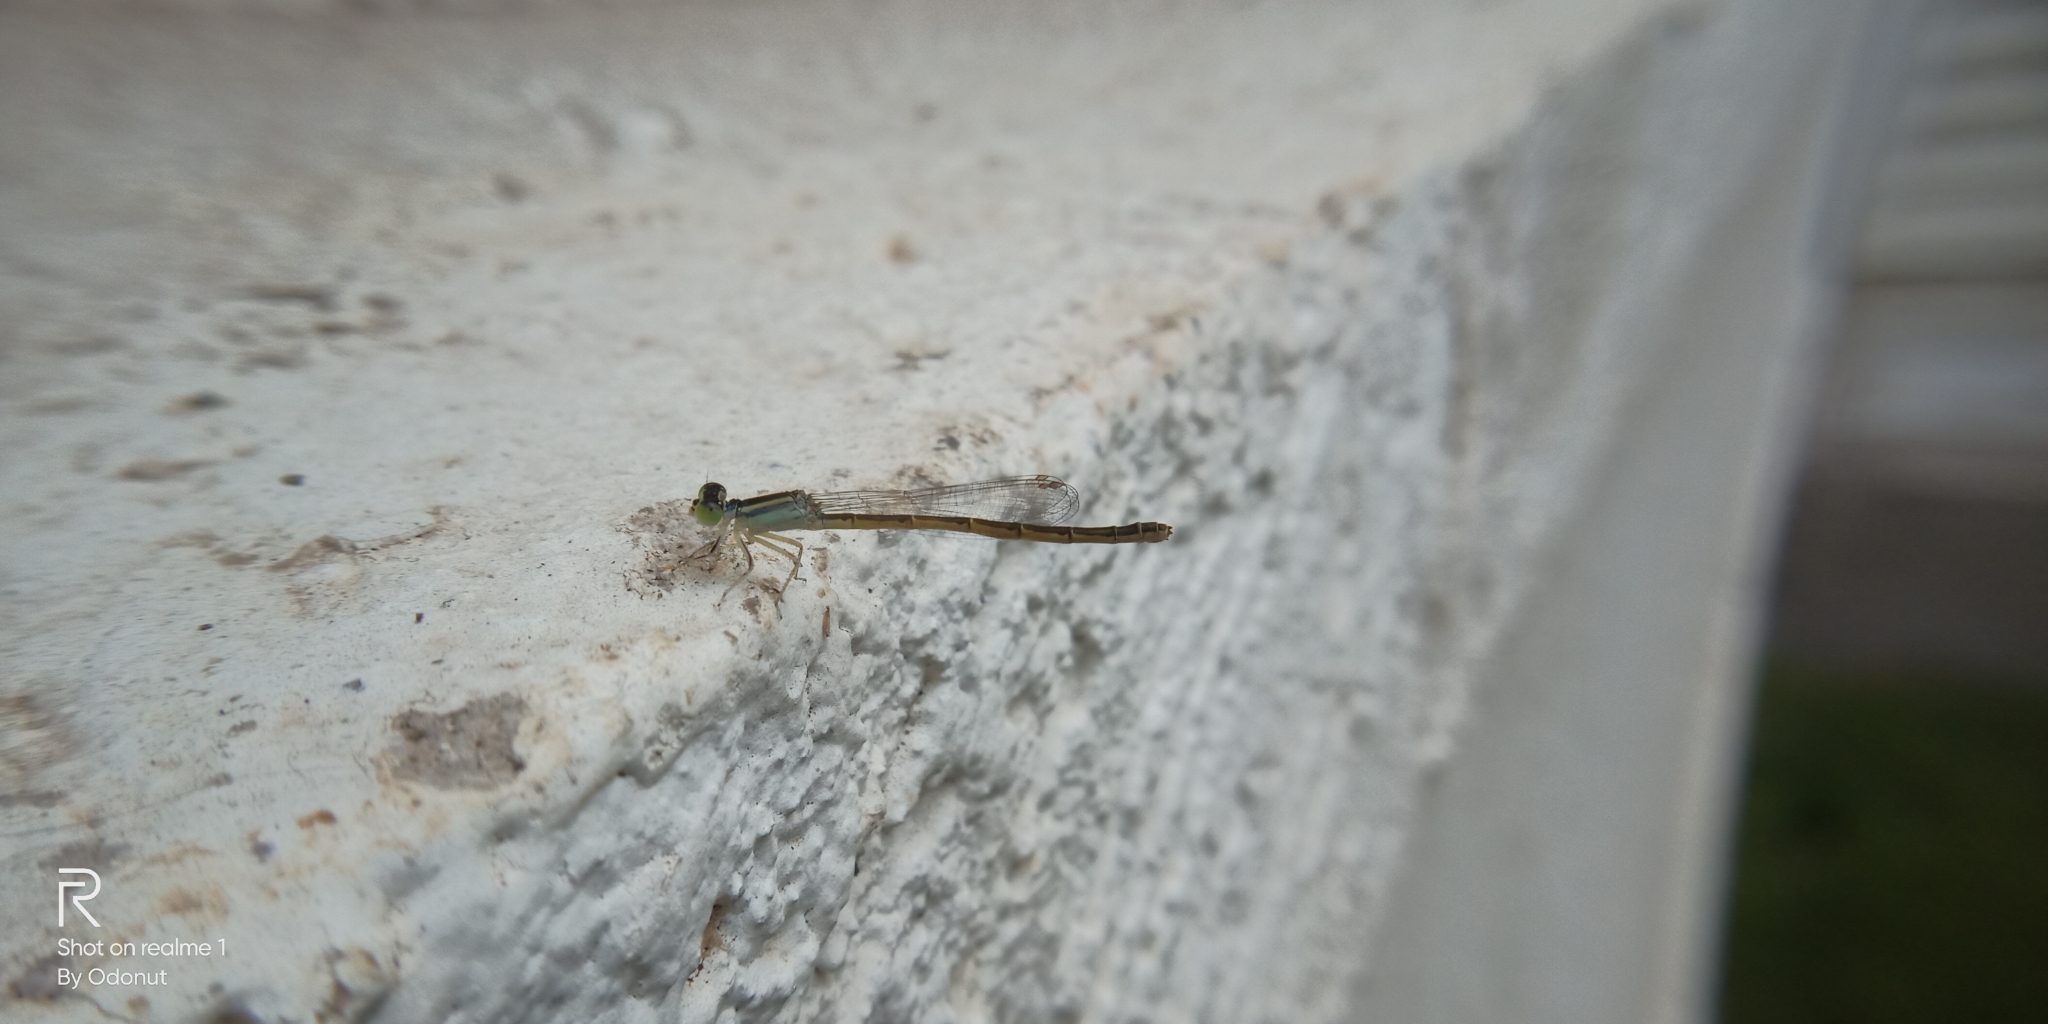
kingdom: Animalia
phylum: Arthropoda
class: Insecta
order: Odonata
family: Coenagrionidae
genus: Ischnura
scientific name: Ischnura rubilio
